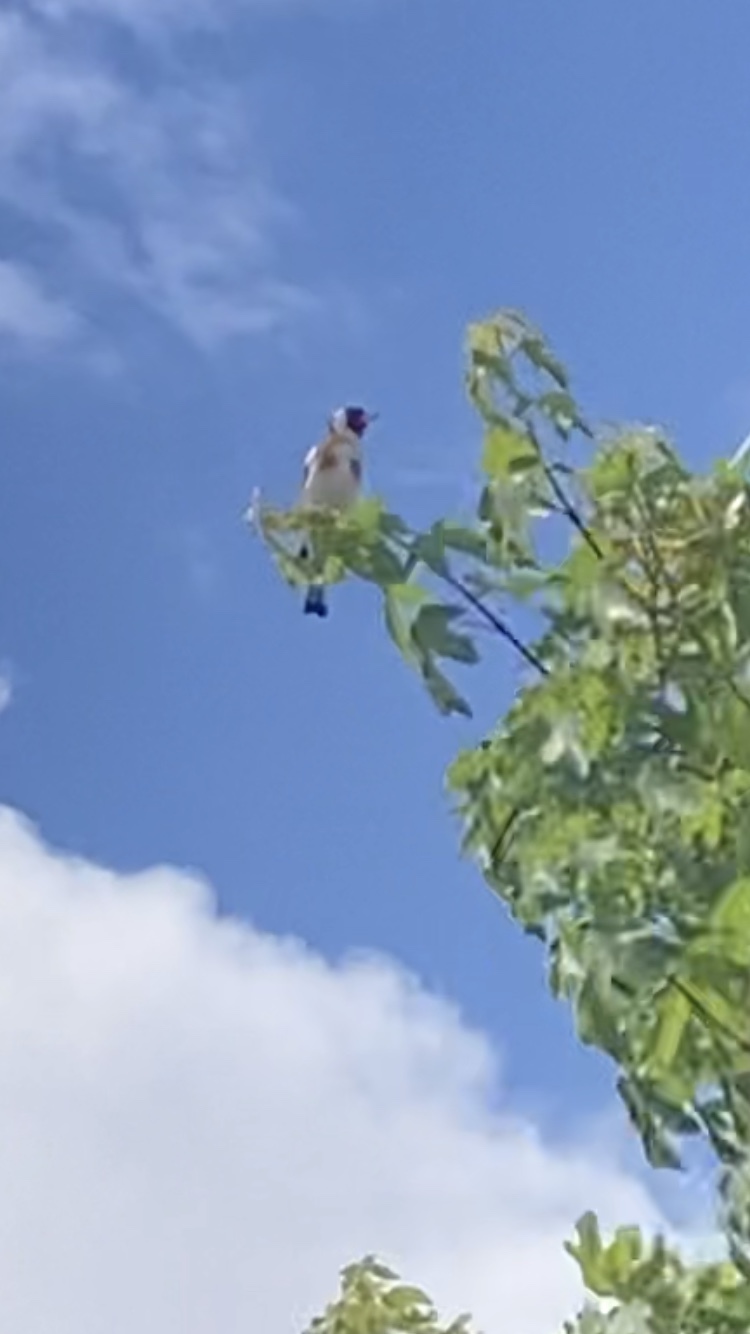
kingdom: Animalia
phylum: Chordata
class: Aves
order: Passeriformes
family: Fringillidae
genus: Carduelis
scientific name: Carduelis carduelis
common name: European goldfinch
